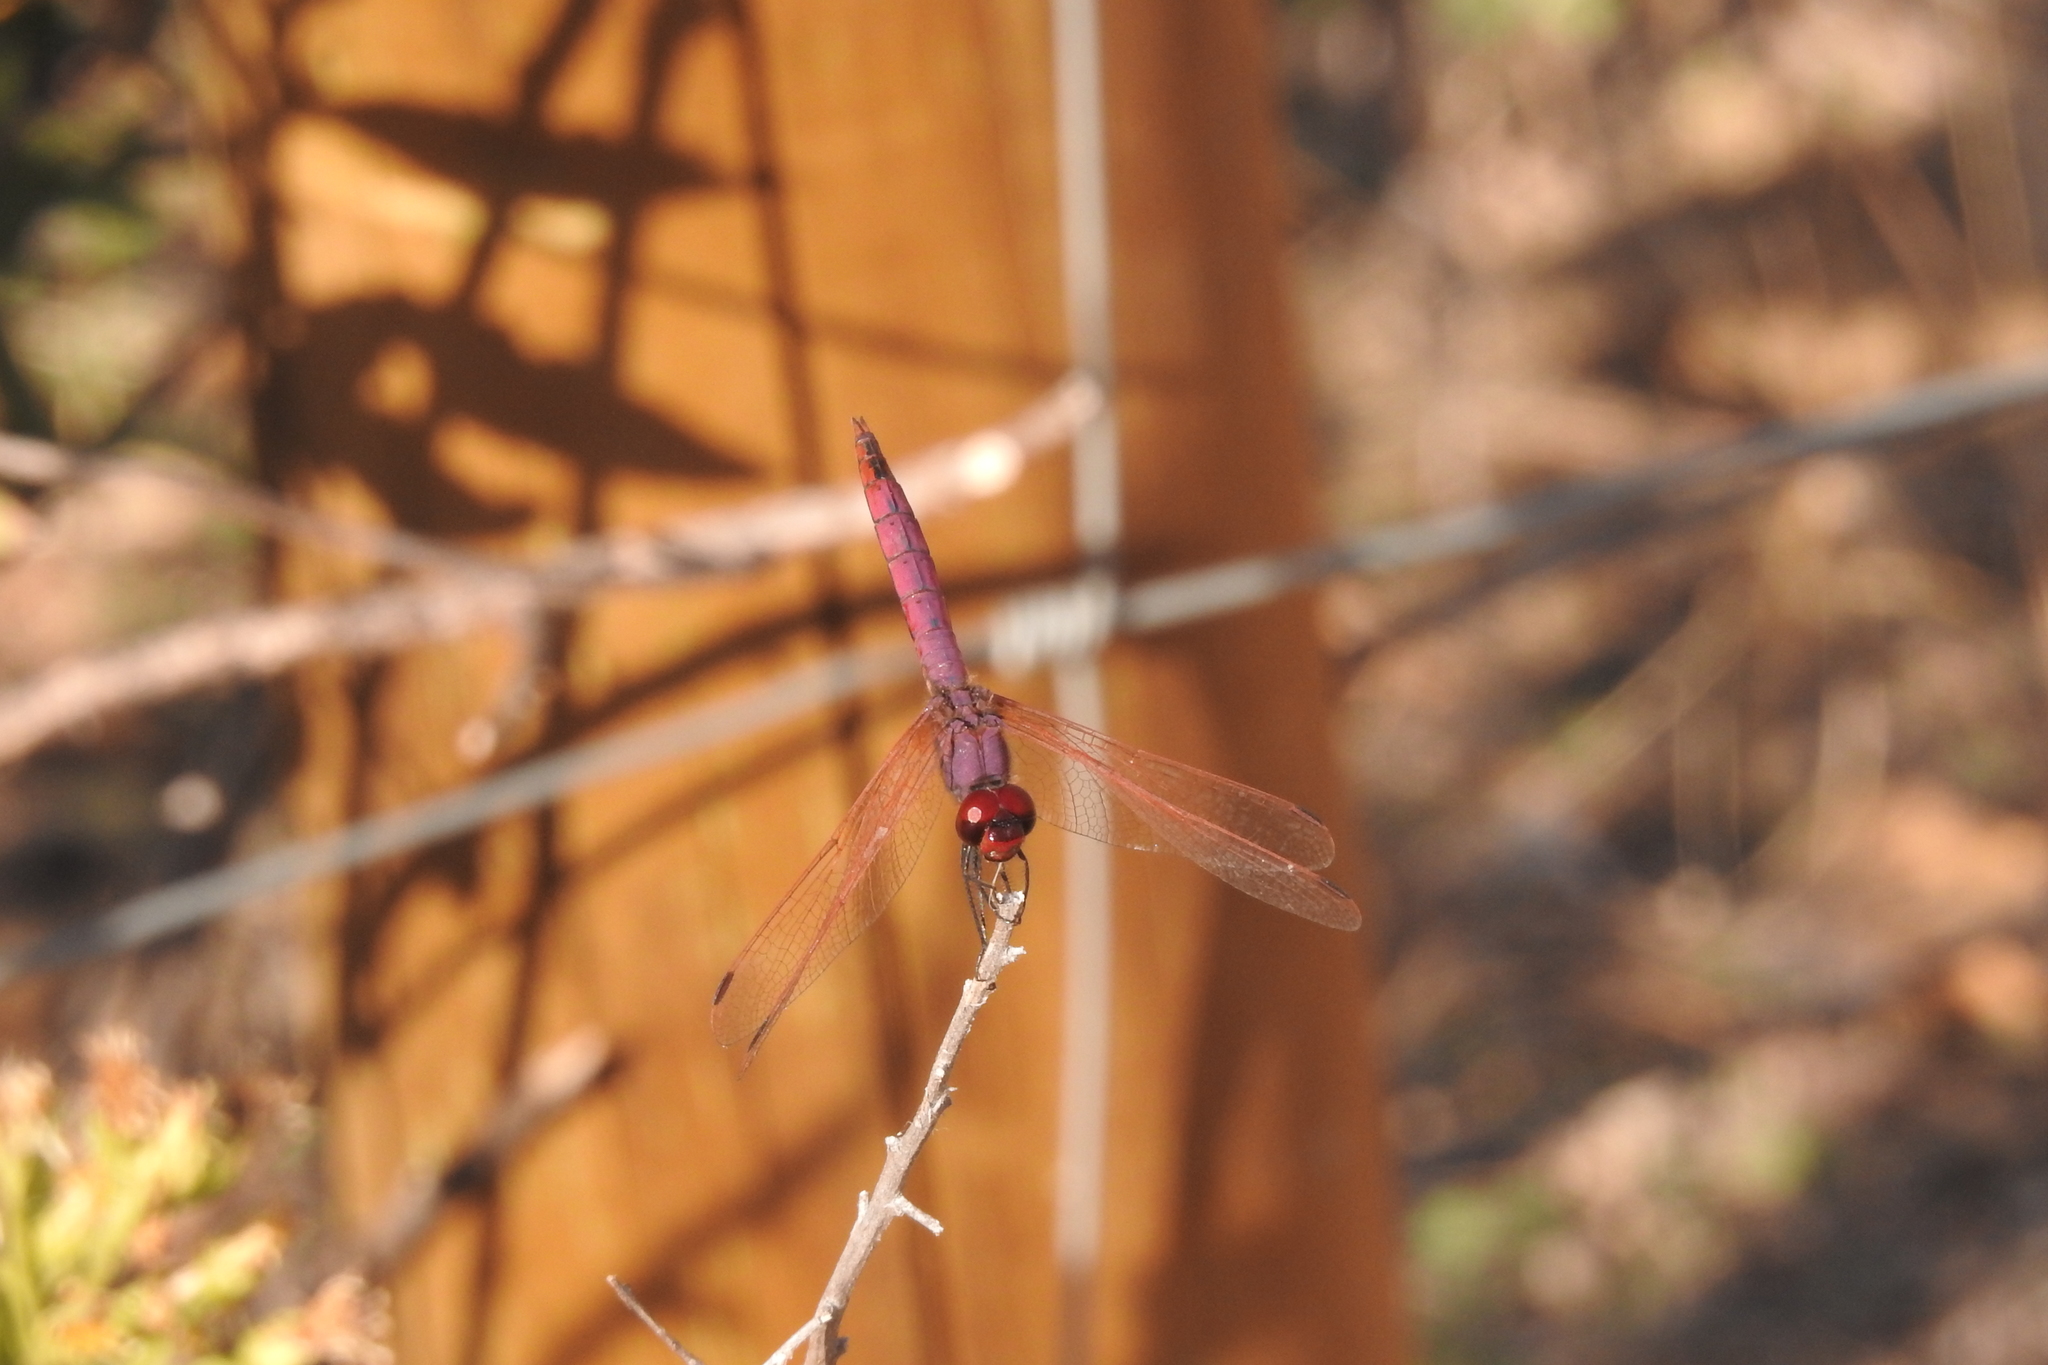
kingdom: Animalia
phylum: Arthropoda
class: Insecta
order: Odonata
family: Libellulidae
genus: Trithemis
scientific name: Trithemis annulata
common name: Violet dropwing
